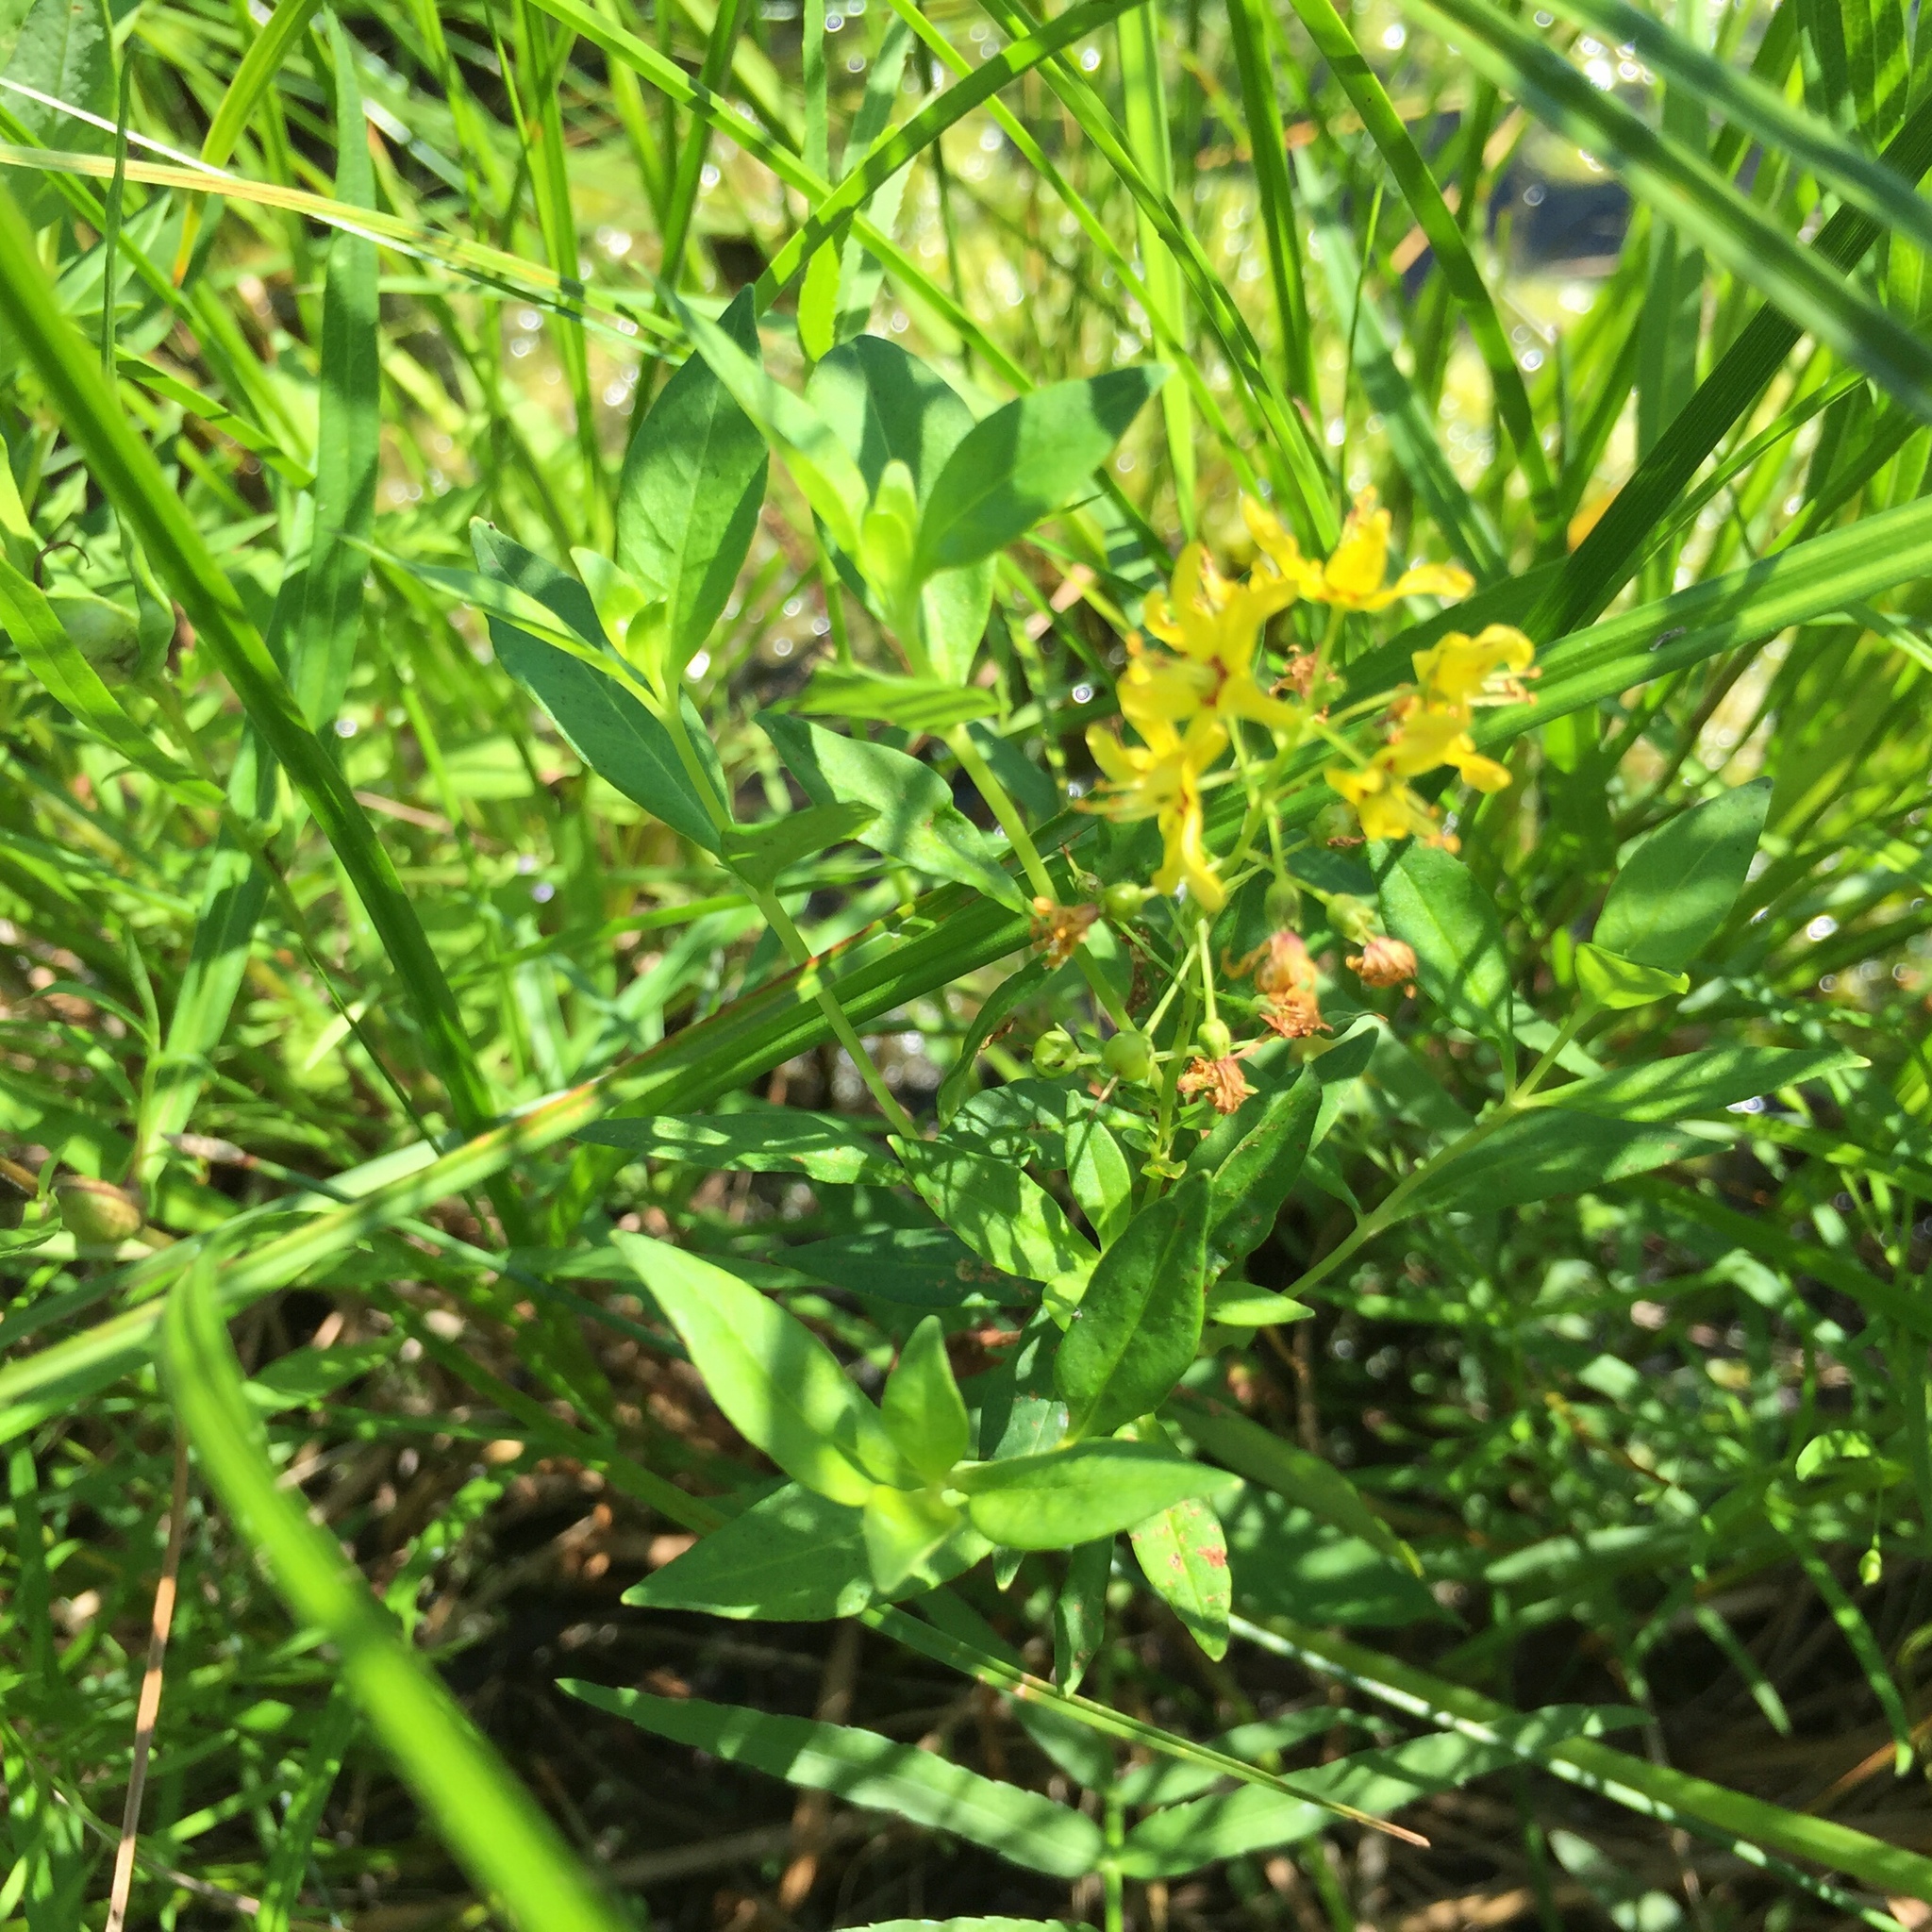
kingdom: Plantae
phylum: Tracheophyta
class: Magnoliopsida
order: Ericales
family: Primulaceae
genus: Lysimachia
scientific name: Lysimachia terrestris
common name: Lake loosestrife
